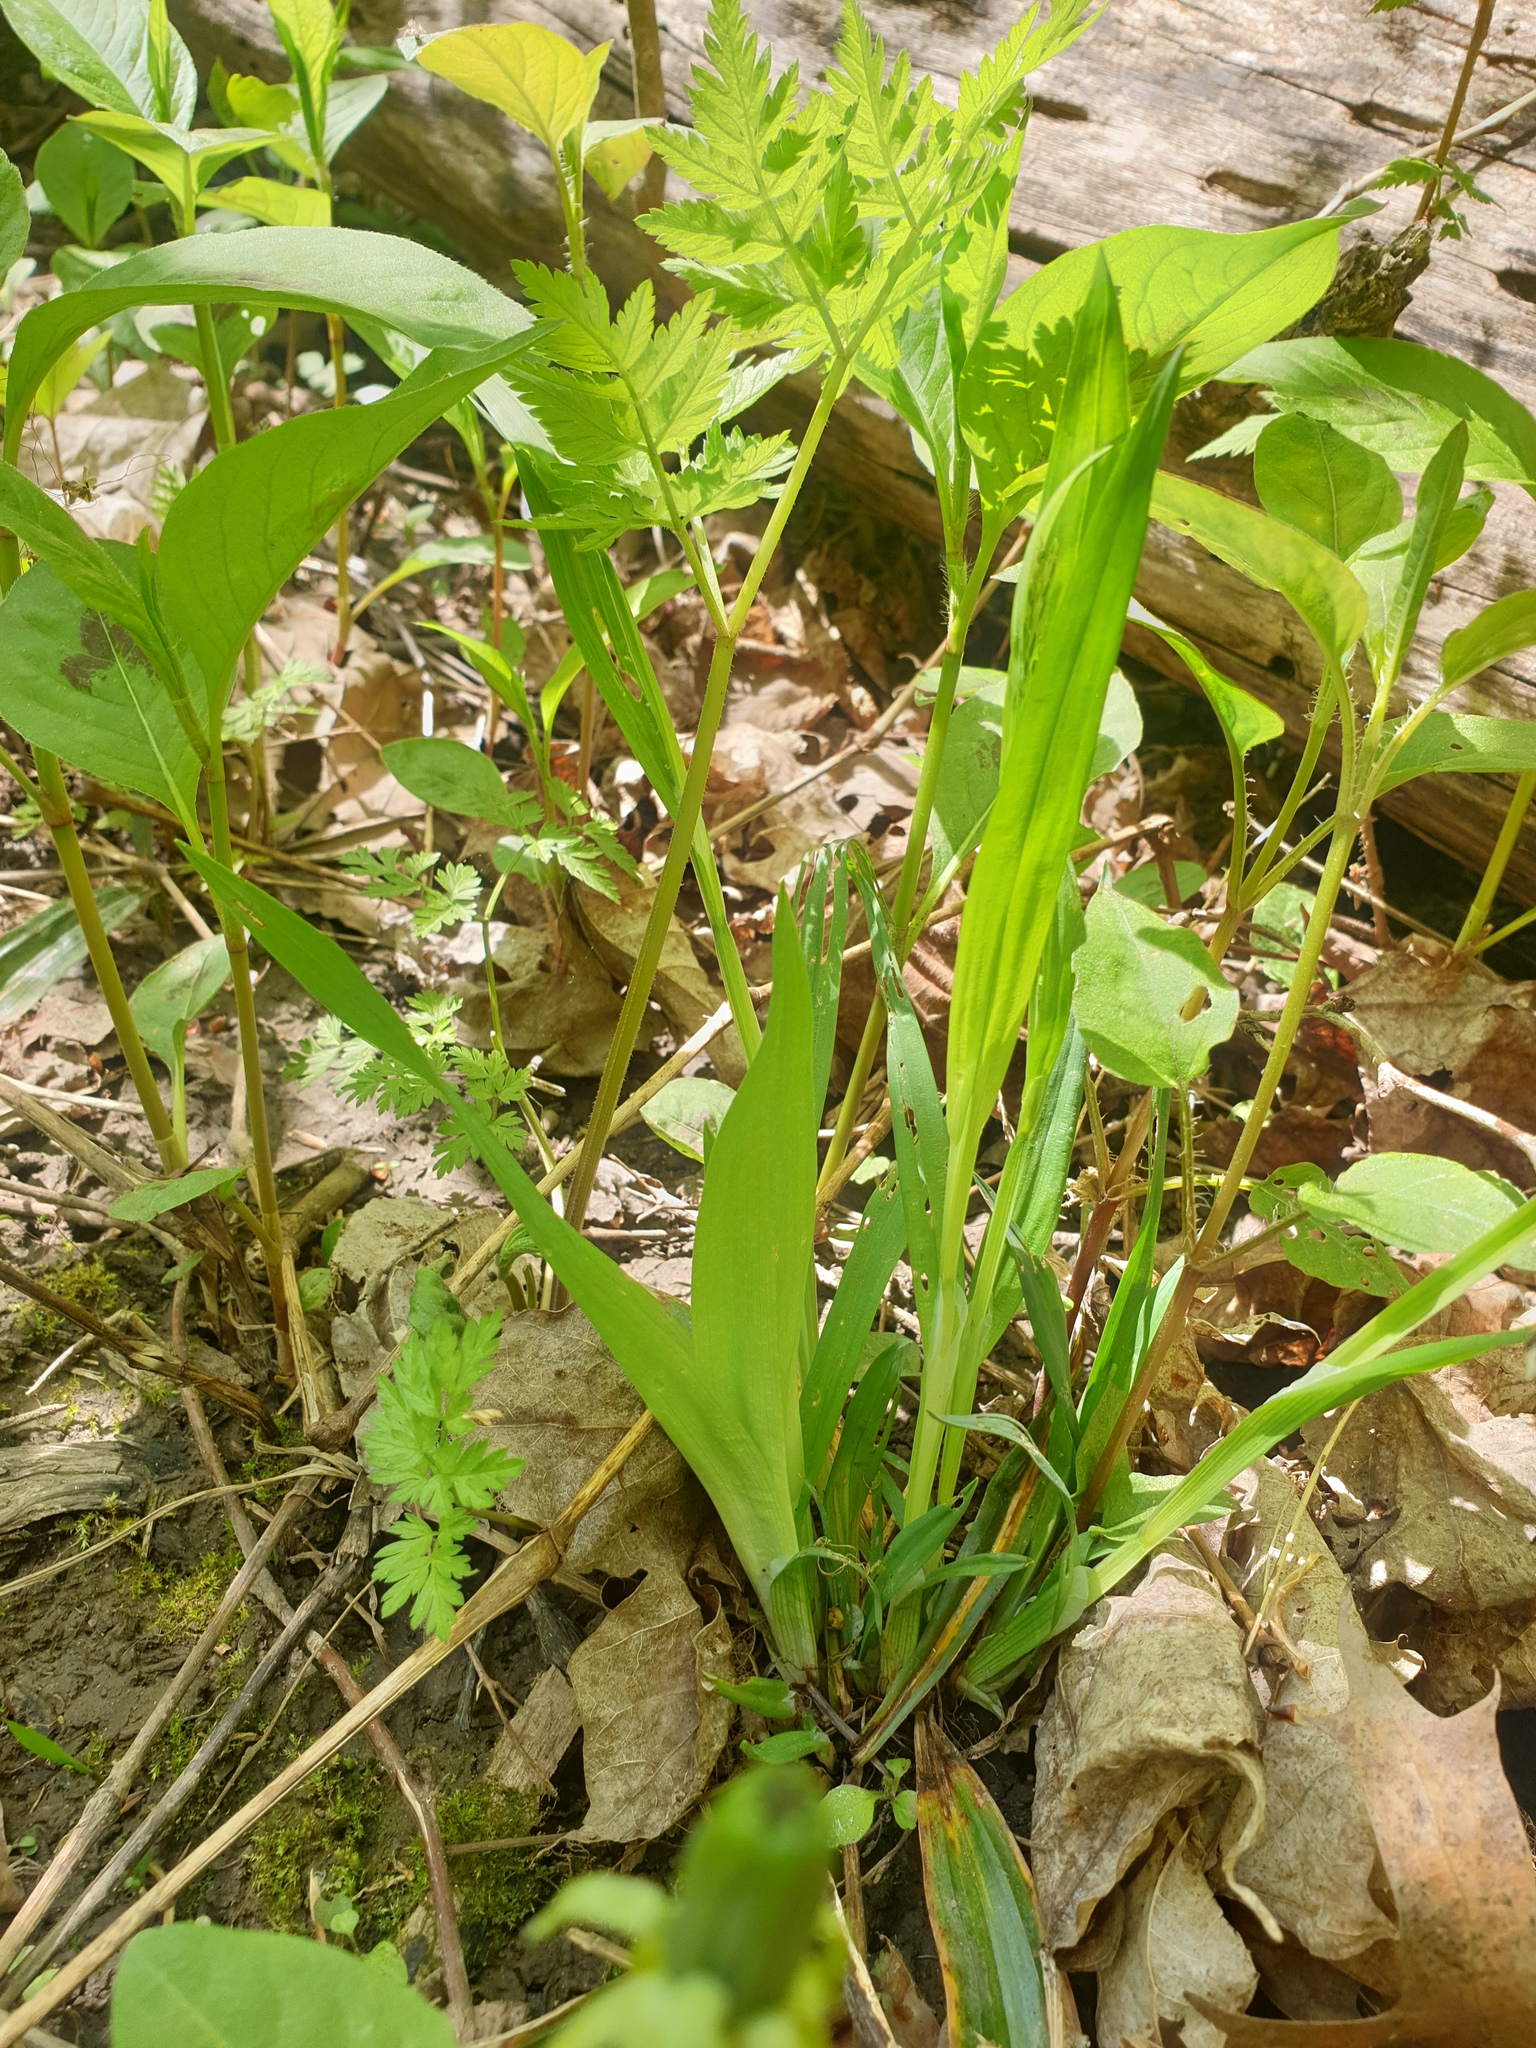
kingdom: Plantae
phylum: Tracheophyta
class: Liliopsida
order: Poales
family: Cyperaceae
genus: Carex
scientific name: Carex albursina
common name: Blunt-scale wood sedge
